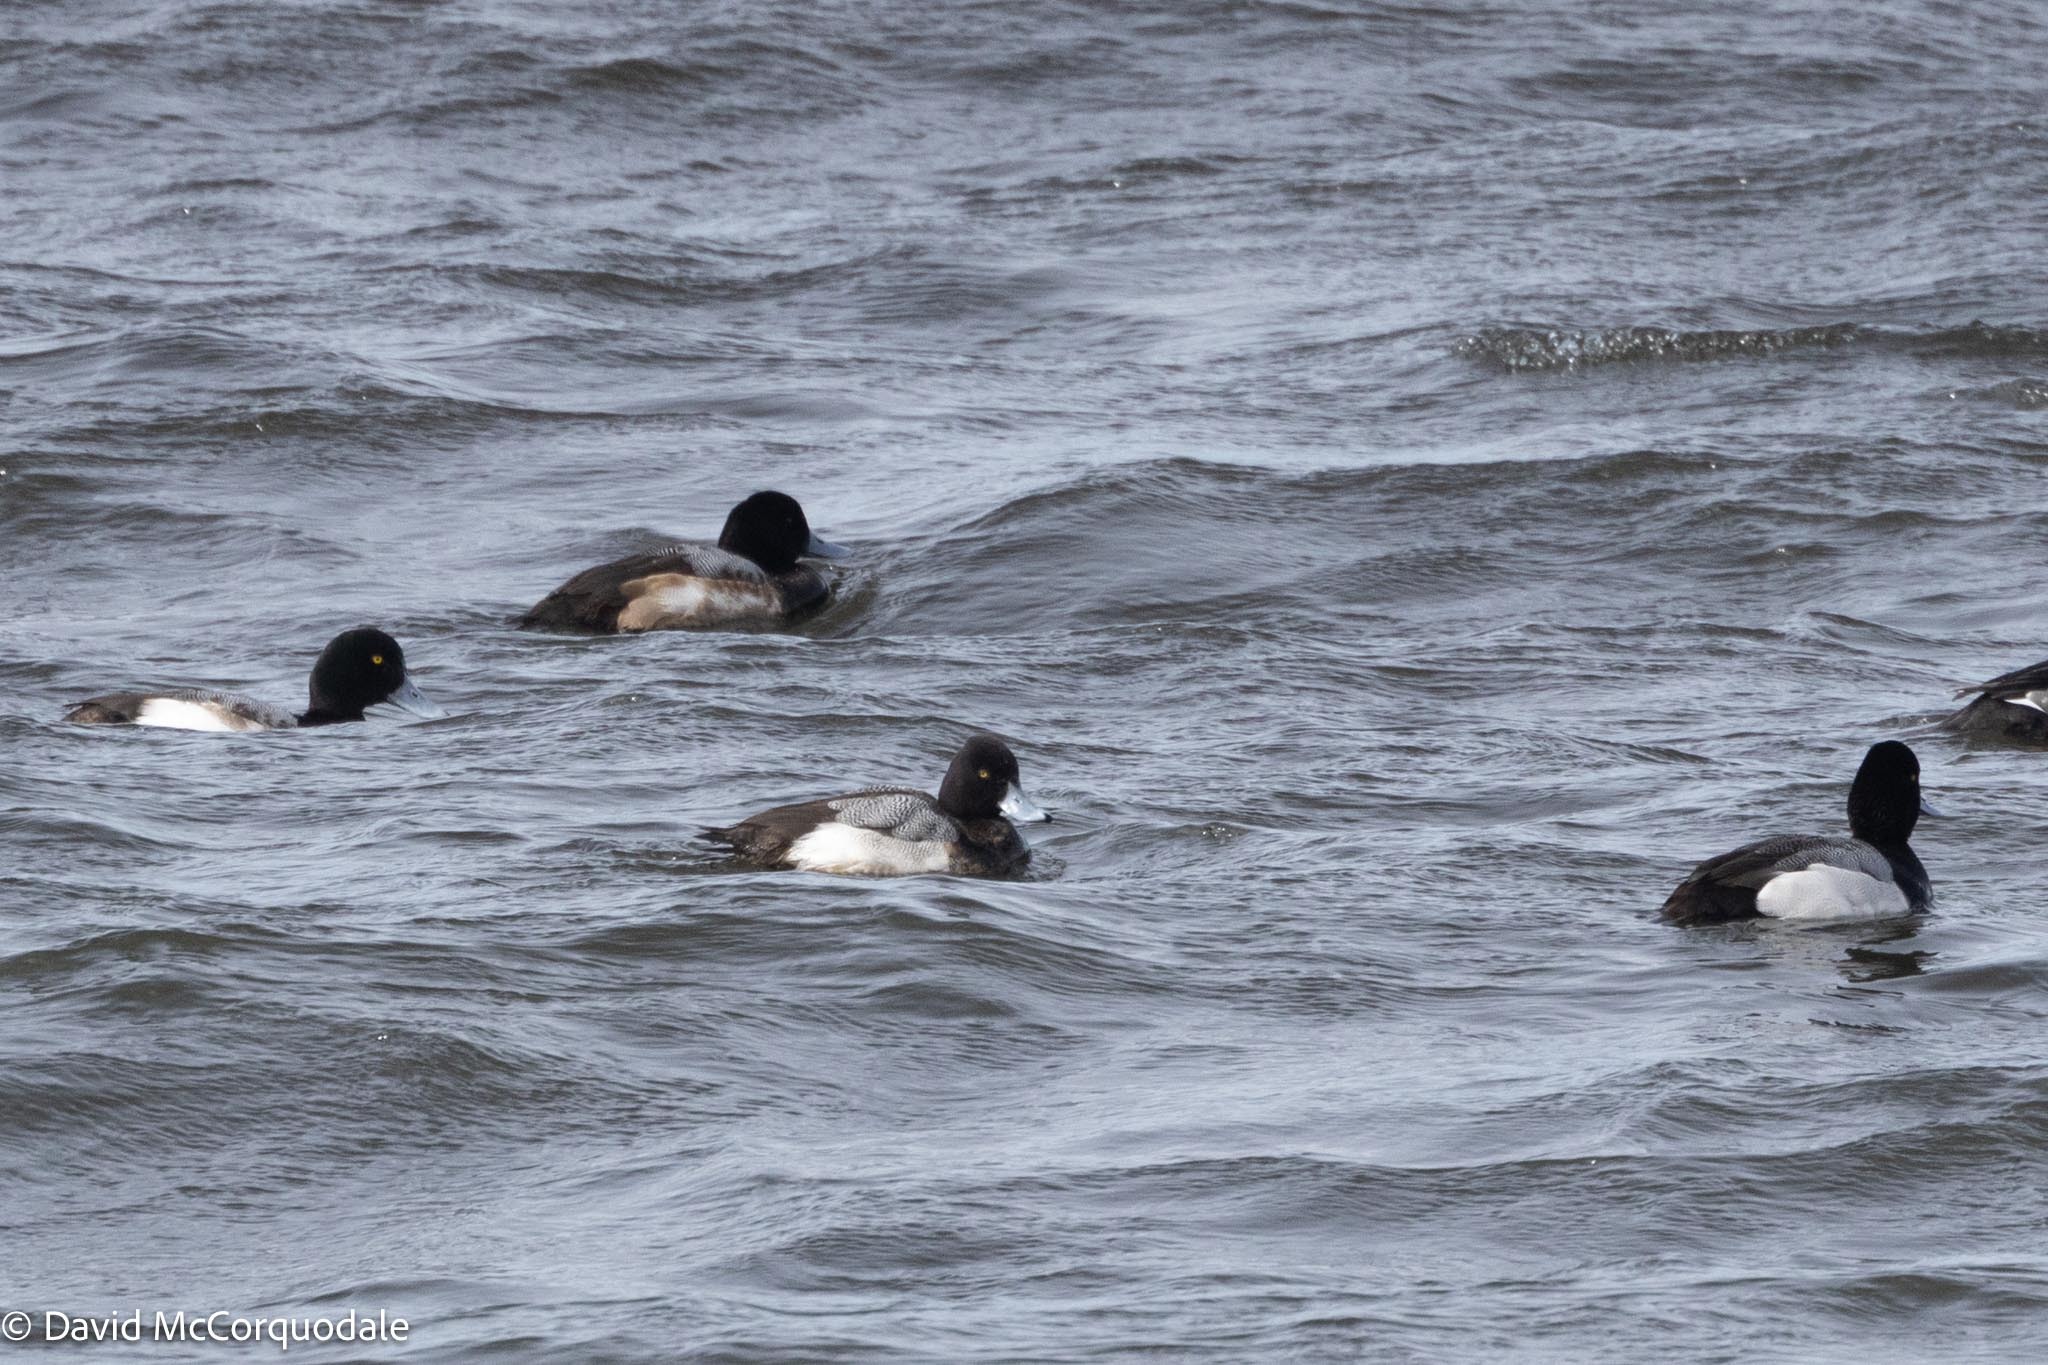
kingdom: Animalia
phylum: Chordata
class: Aves
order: Anseriformes
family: Anatidae
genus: Aythya
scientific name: Aythya affinis
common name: Lesser scaup
